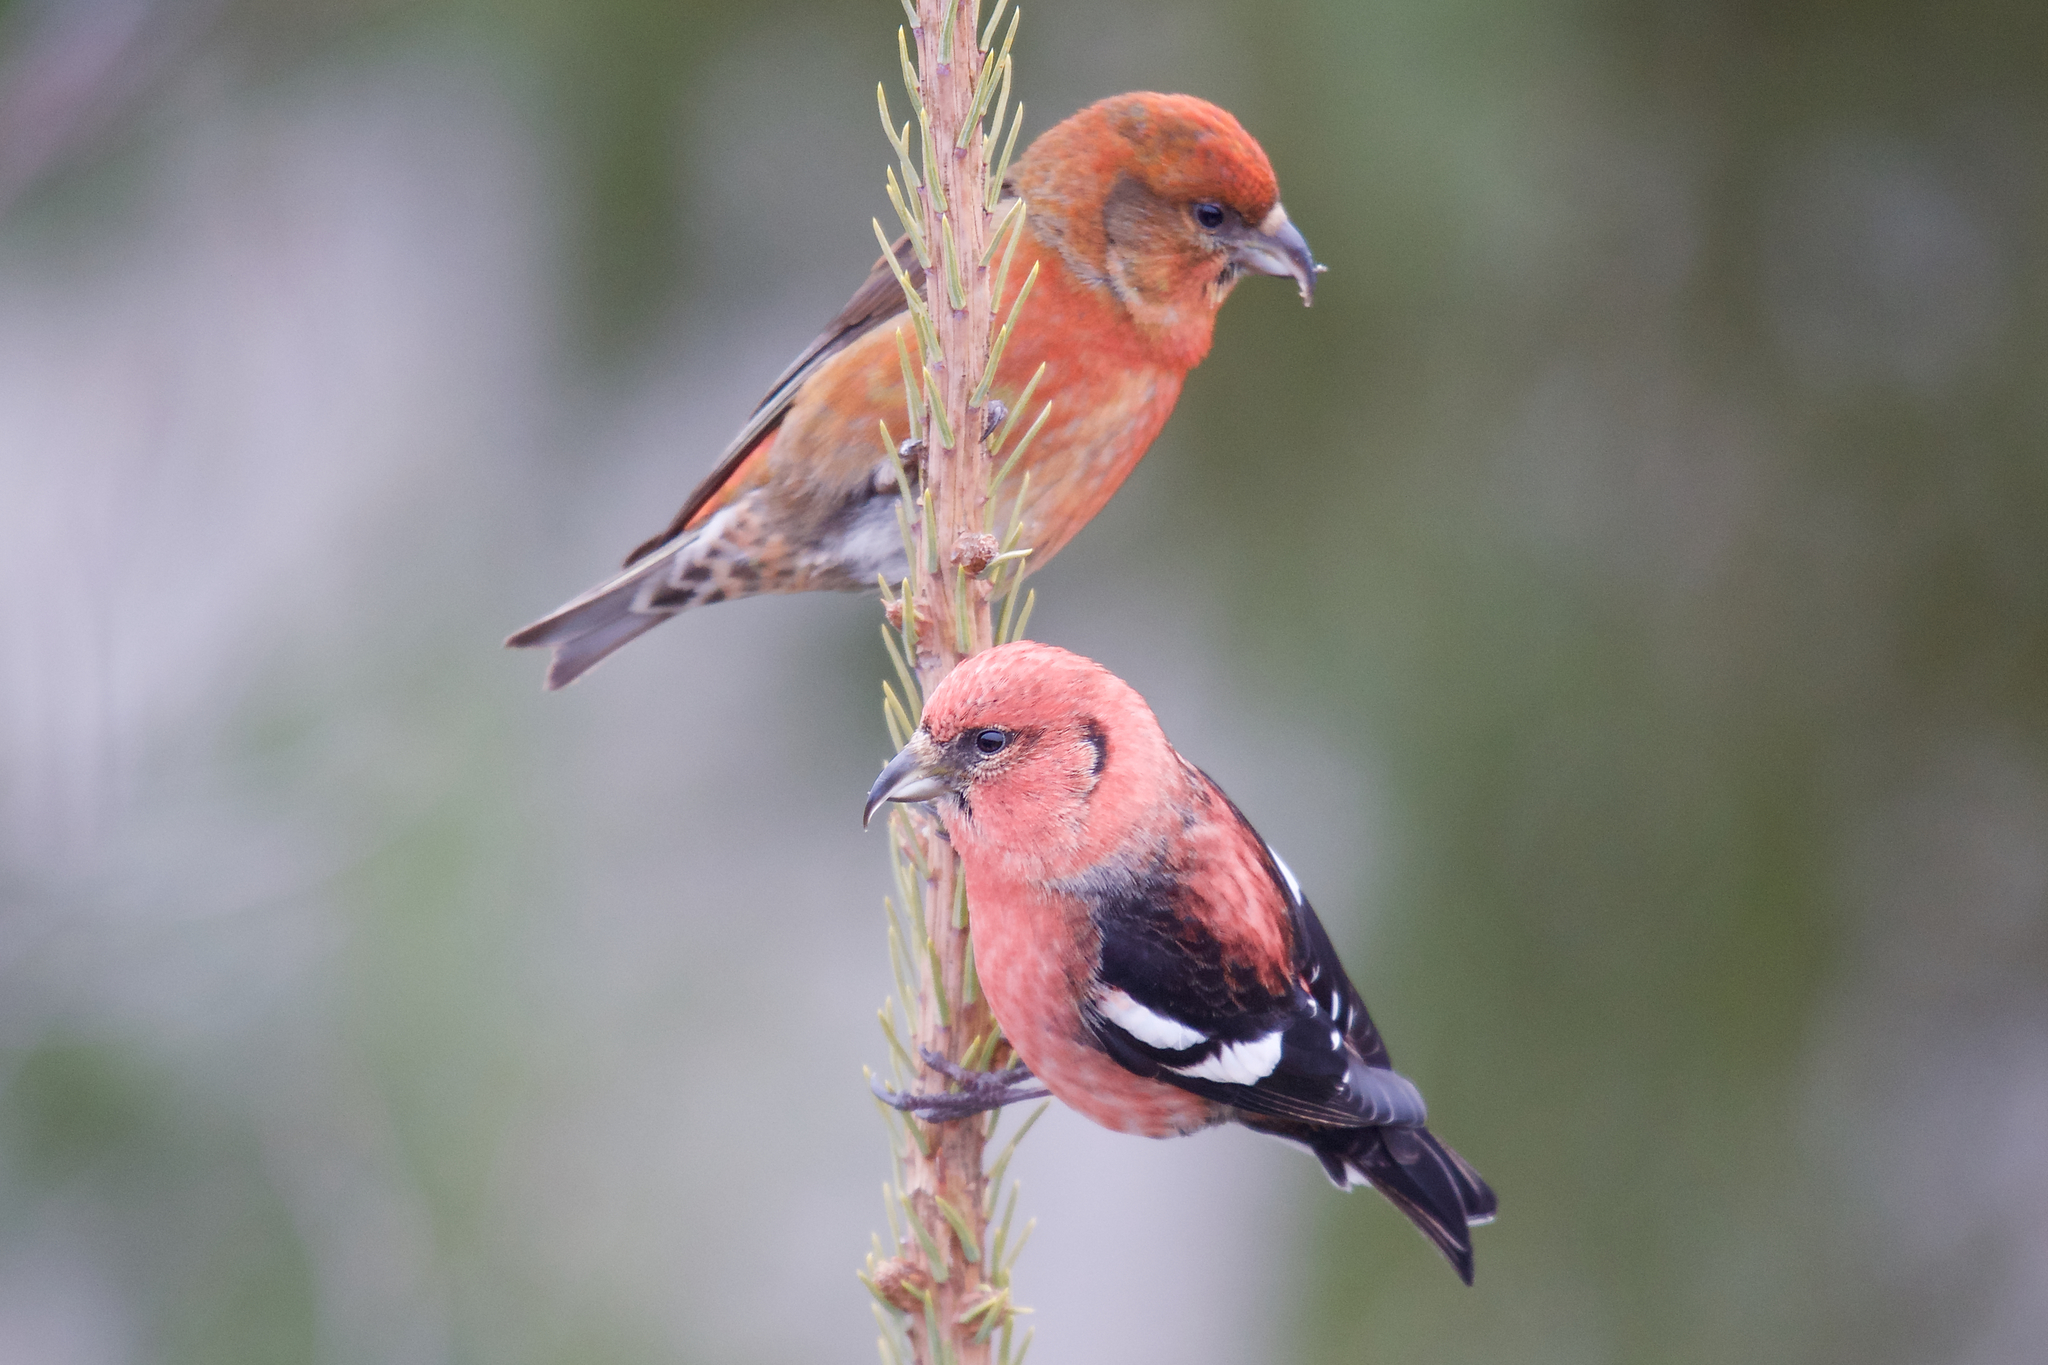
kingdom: Animalia
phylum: Chordata
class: Aves
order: Passeriformes
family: Fringillidae
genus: Loxia
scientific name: Loxia leucoptera
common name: Two-barred crossbill
